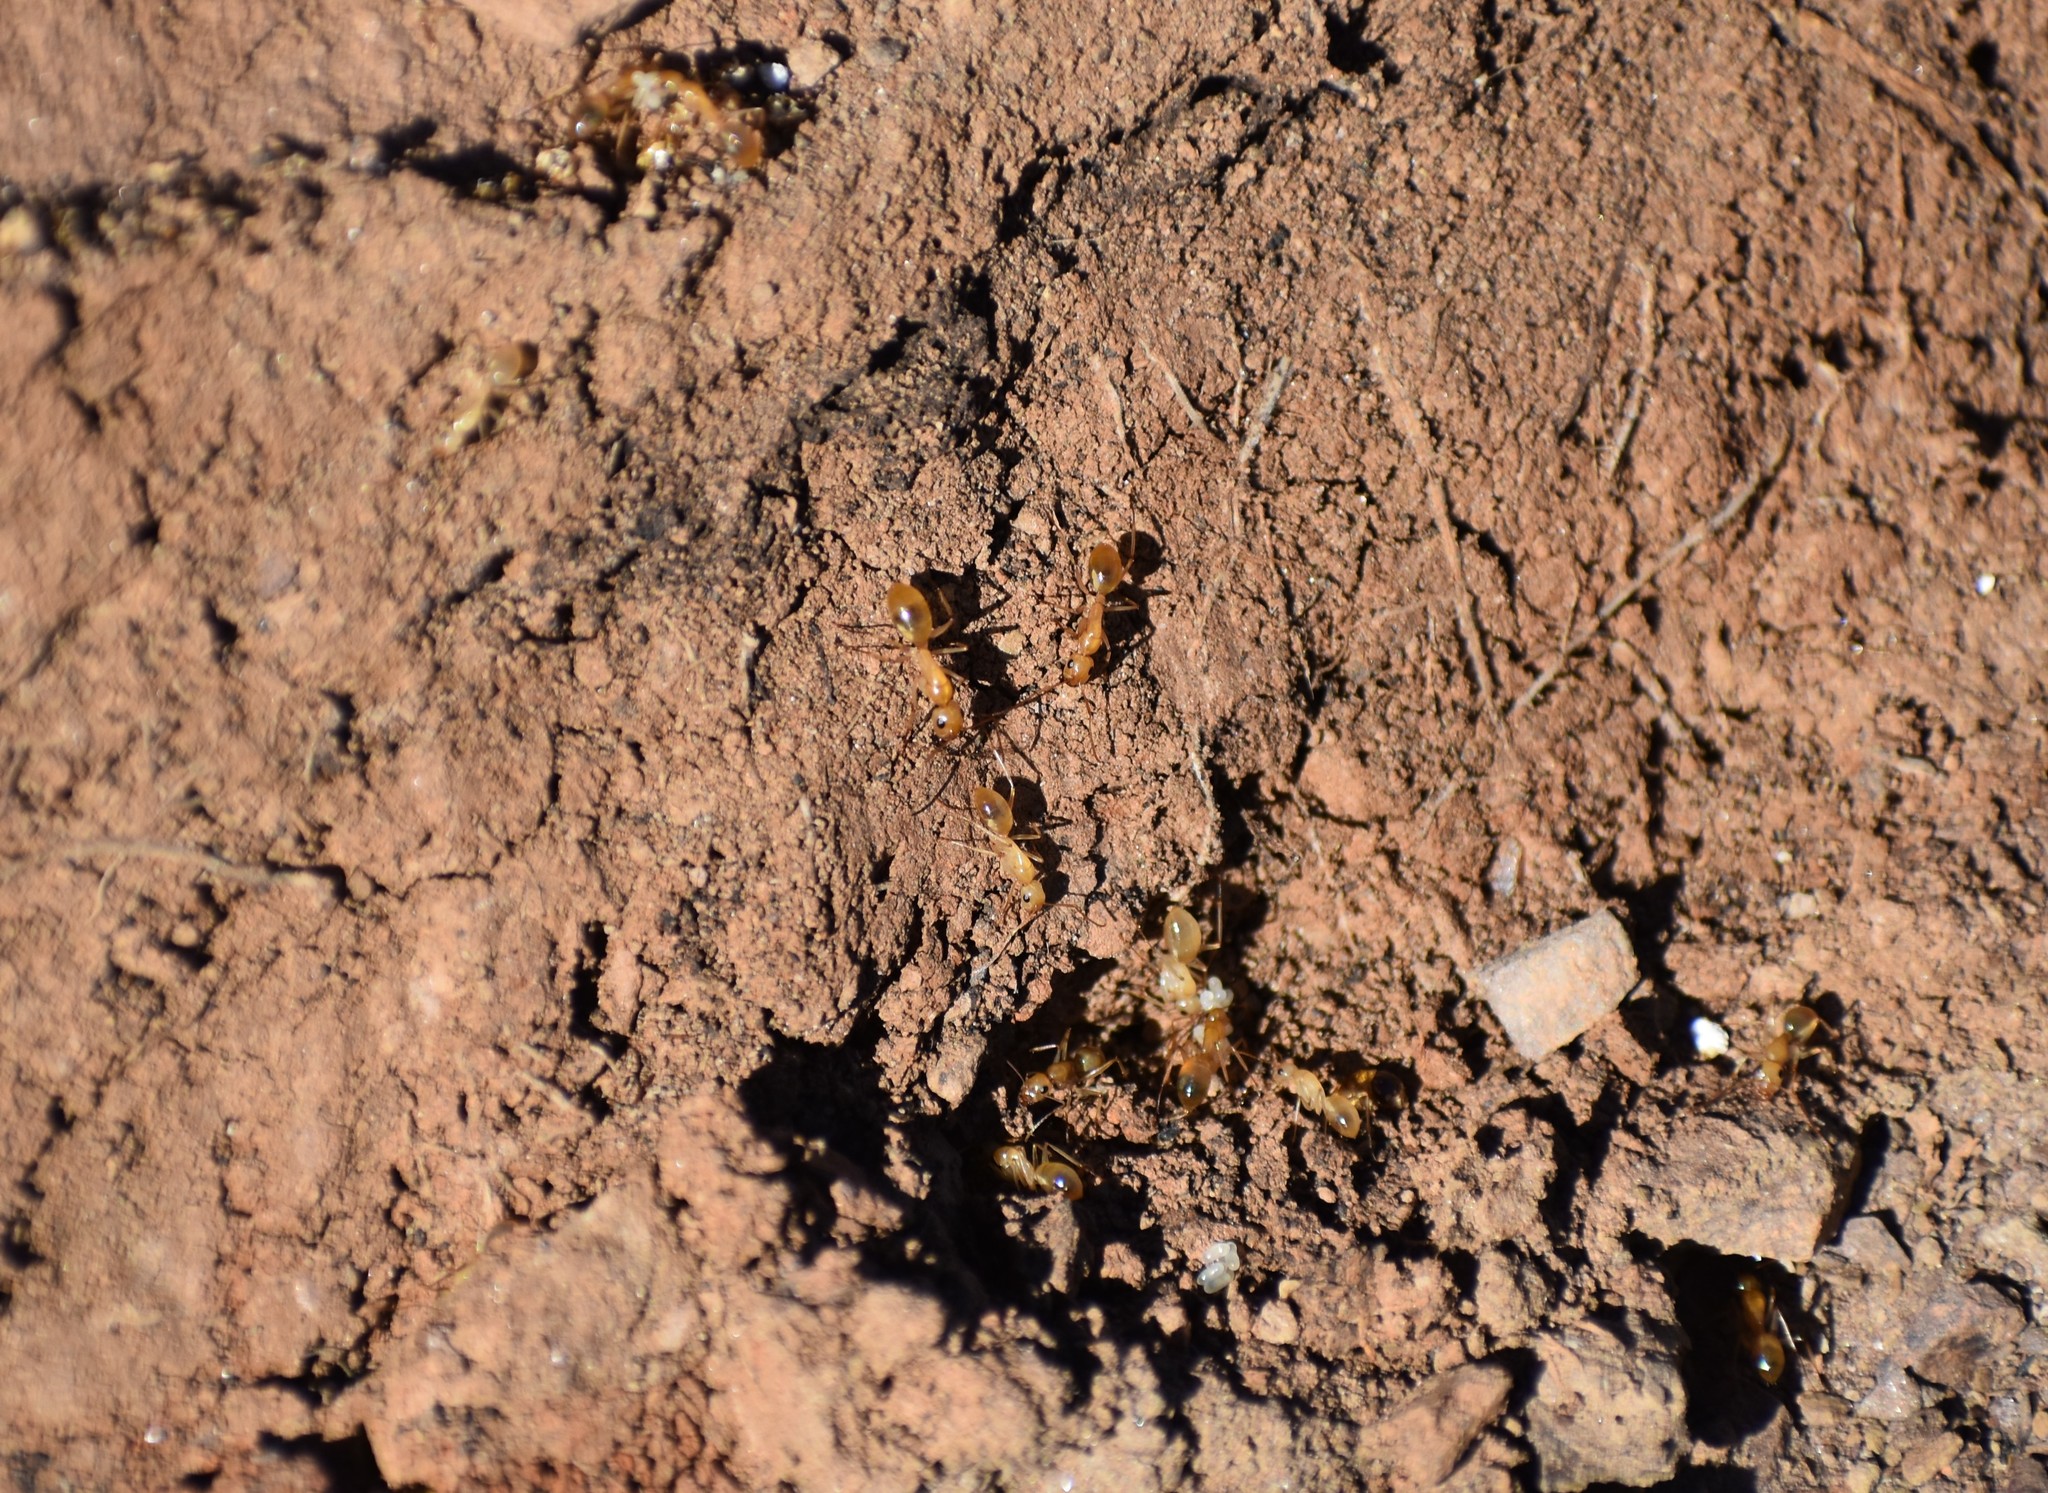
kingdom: Animalia
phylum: Arthropoda
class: Insecta
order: Hymenoptera
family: Formicidae
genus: Camponotus
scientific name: Camponotus cuneiscapus
